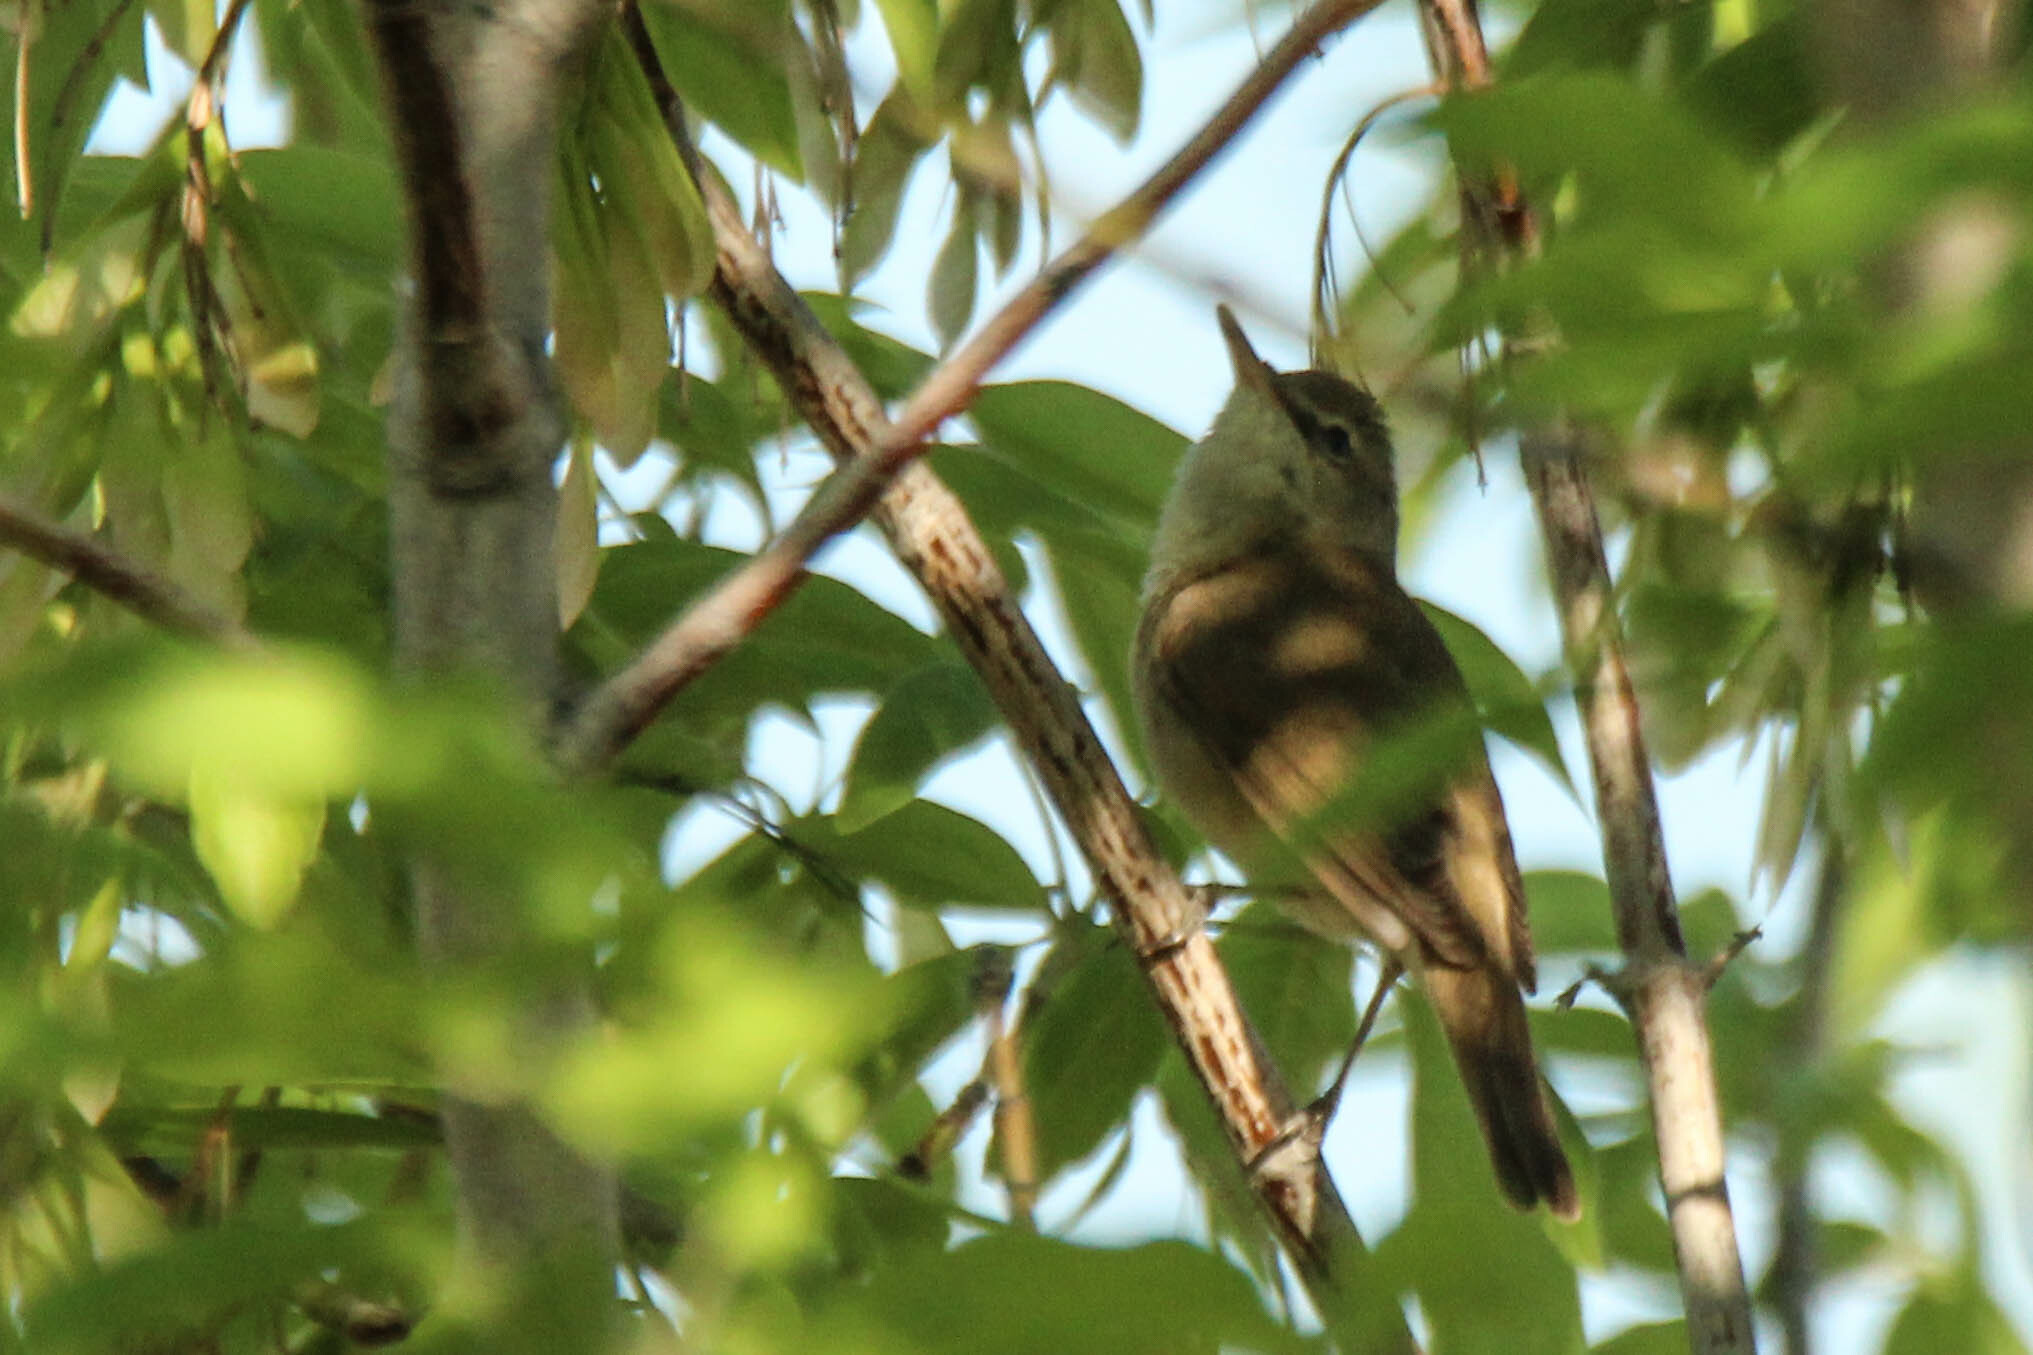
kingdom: Animalia
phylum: Chordata
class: Aves
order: Passeriformes
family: Acrocephalidae
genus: Acrocephalus
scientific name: Acrocephalus dumetorum
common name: Blyth's reed warbler
